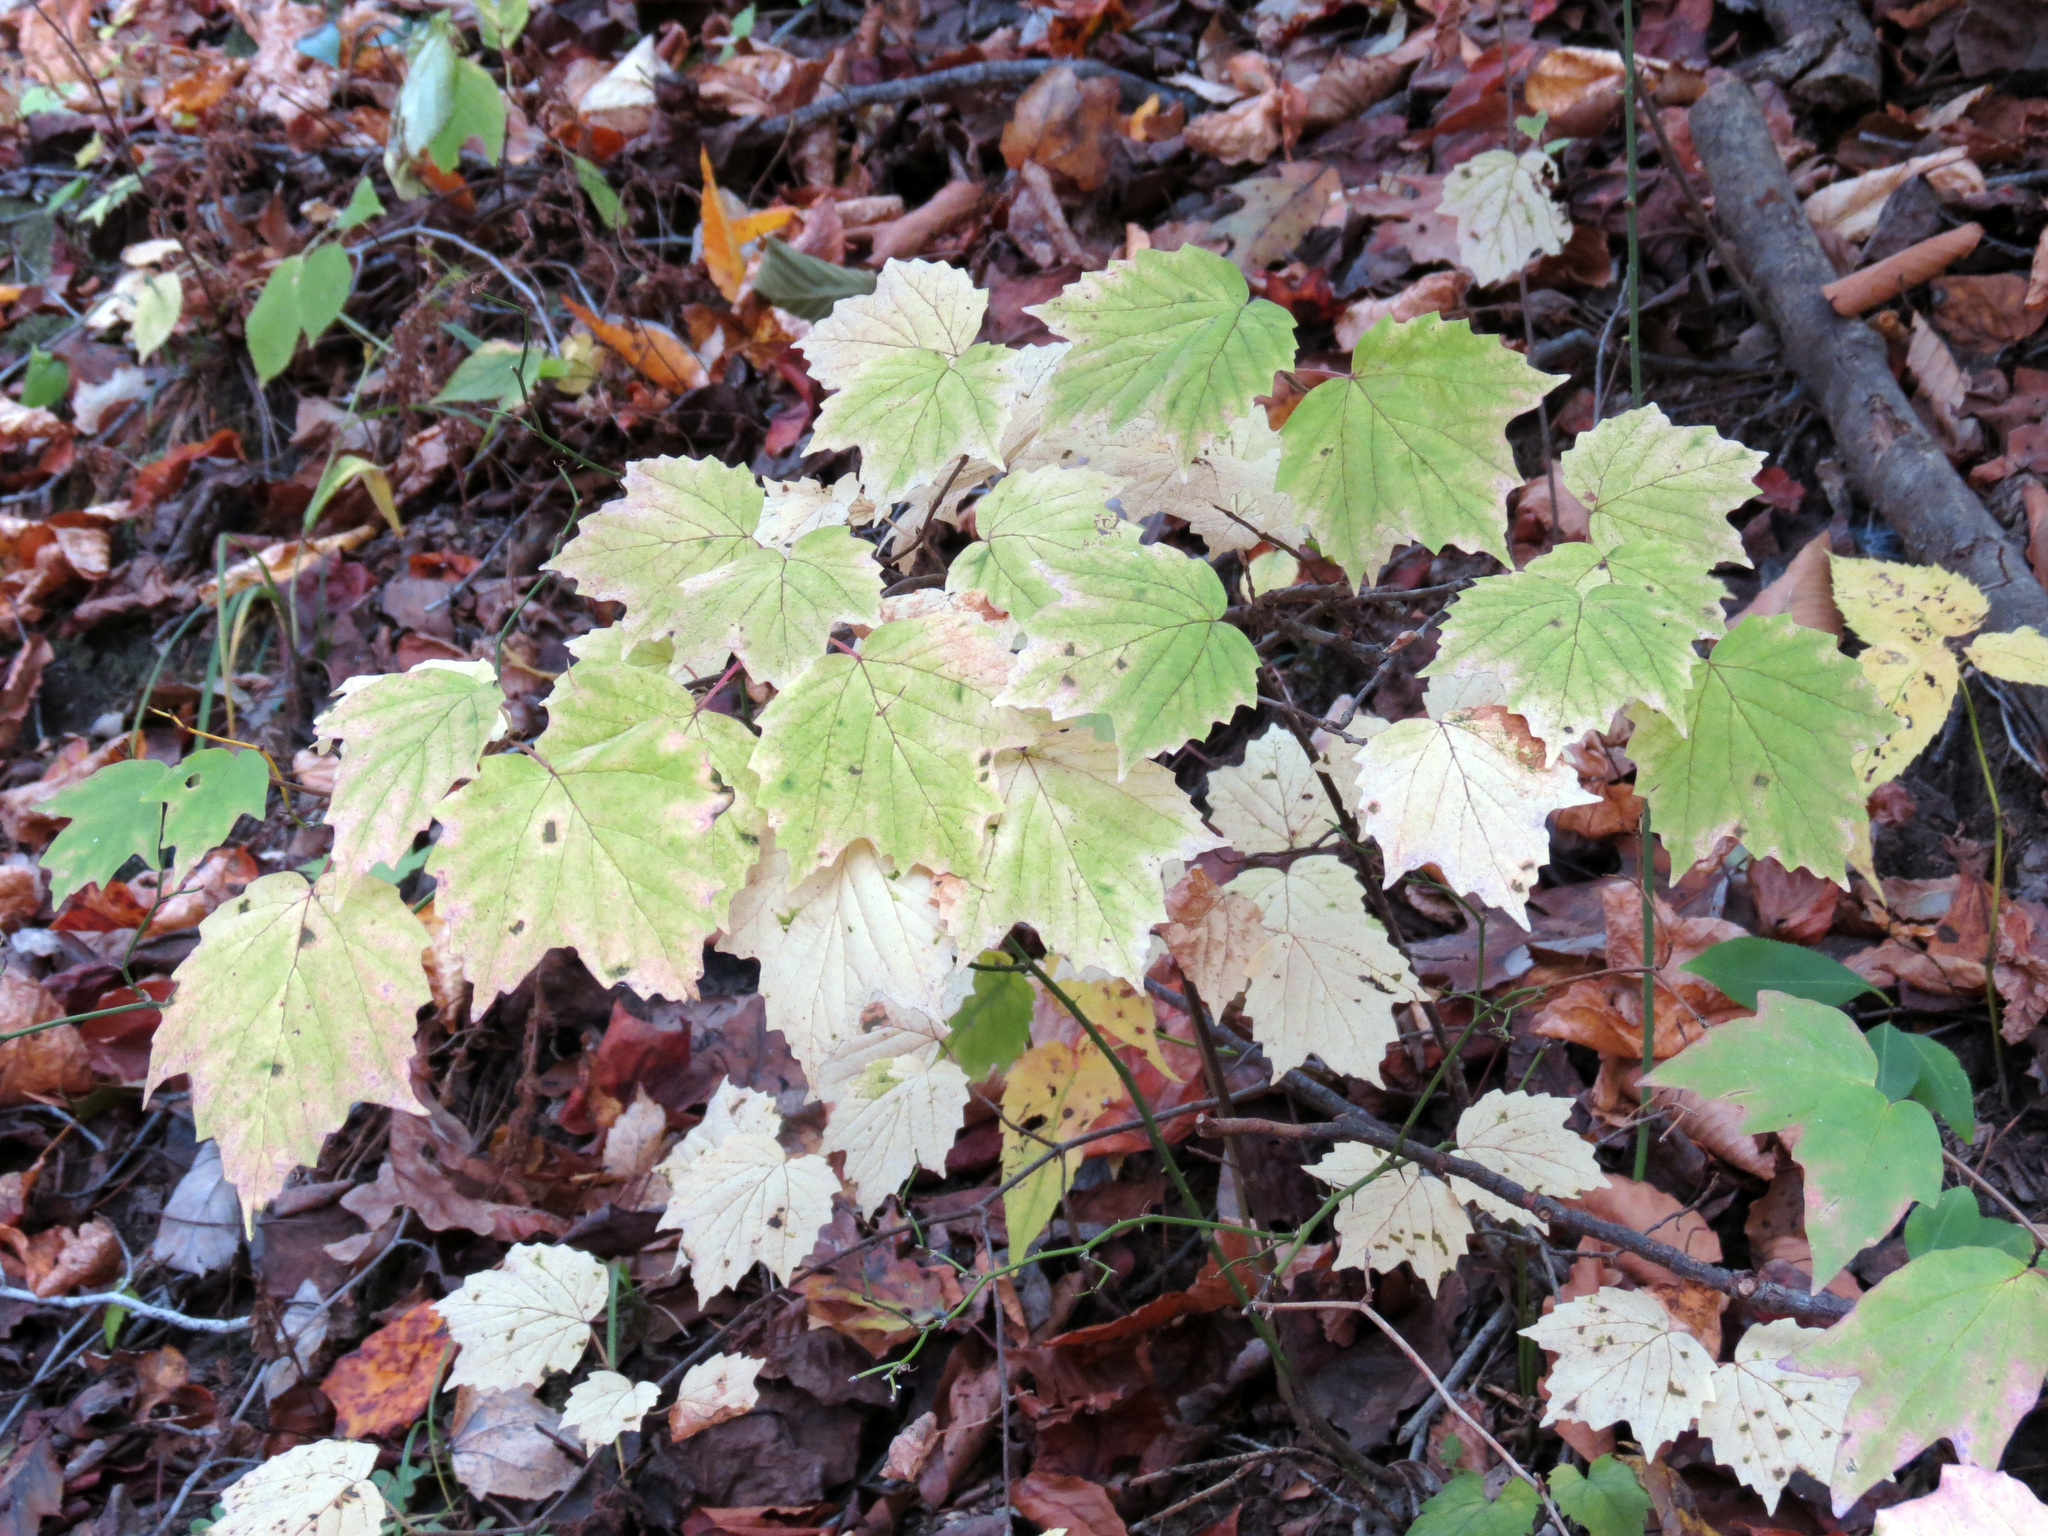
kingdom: Plantae
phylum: Tracheophyta
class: Magnoliopsida
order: Dipsacales
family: Viburnaceae
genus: Viburnum
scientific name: Viburnum acerifolium
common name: Dockmackie
